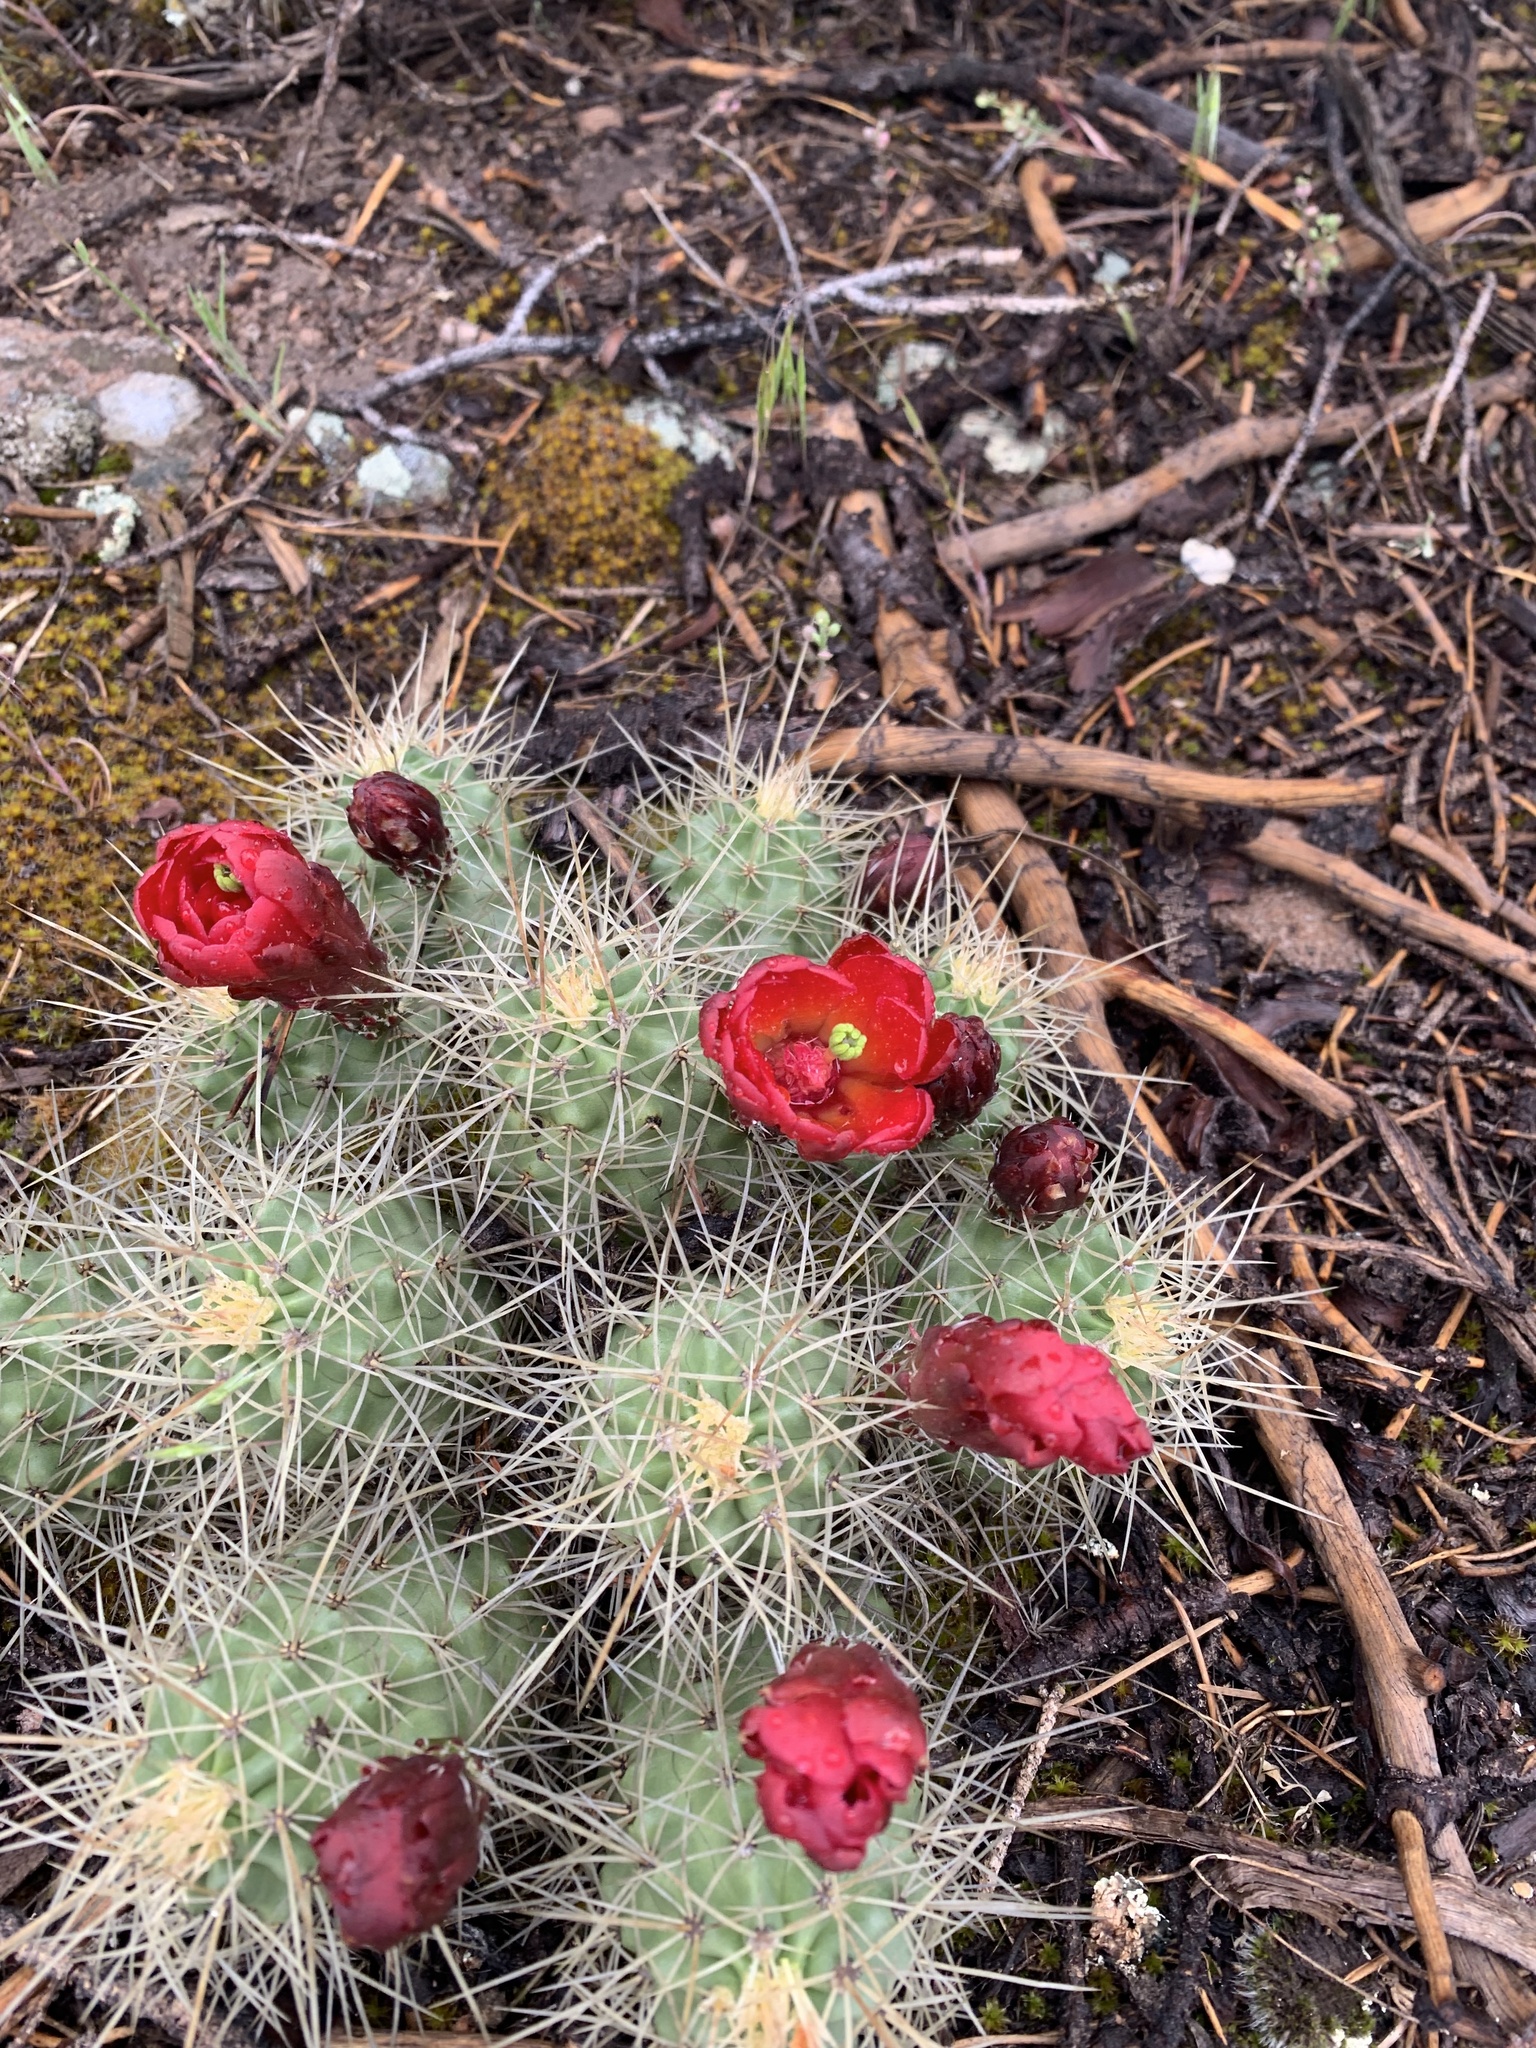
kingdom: Plantae
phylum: Tracheophyta
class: Magnoliopsida
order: Caryophyllales
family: Cactaceae
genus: Echinocereus
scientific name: Echinocereus triglochidiatus
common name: Claretcup hedgehog
